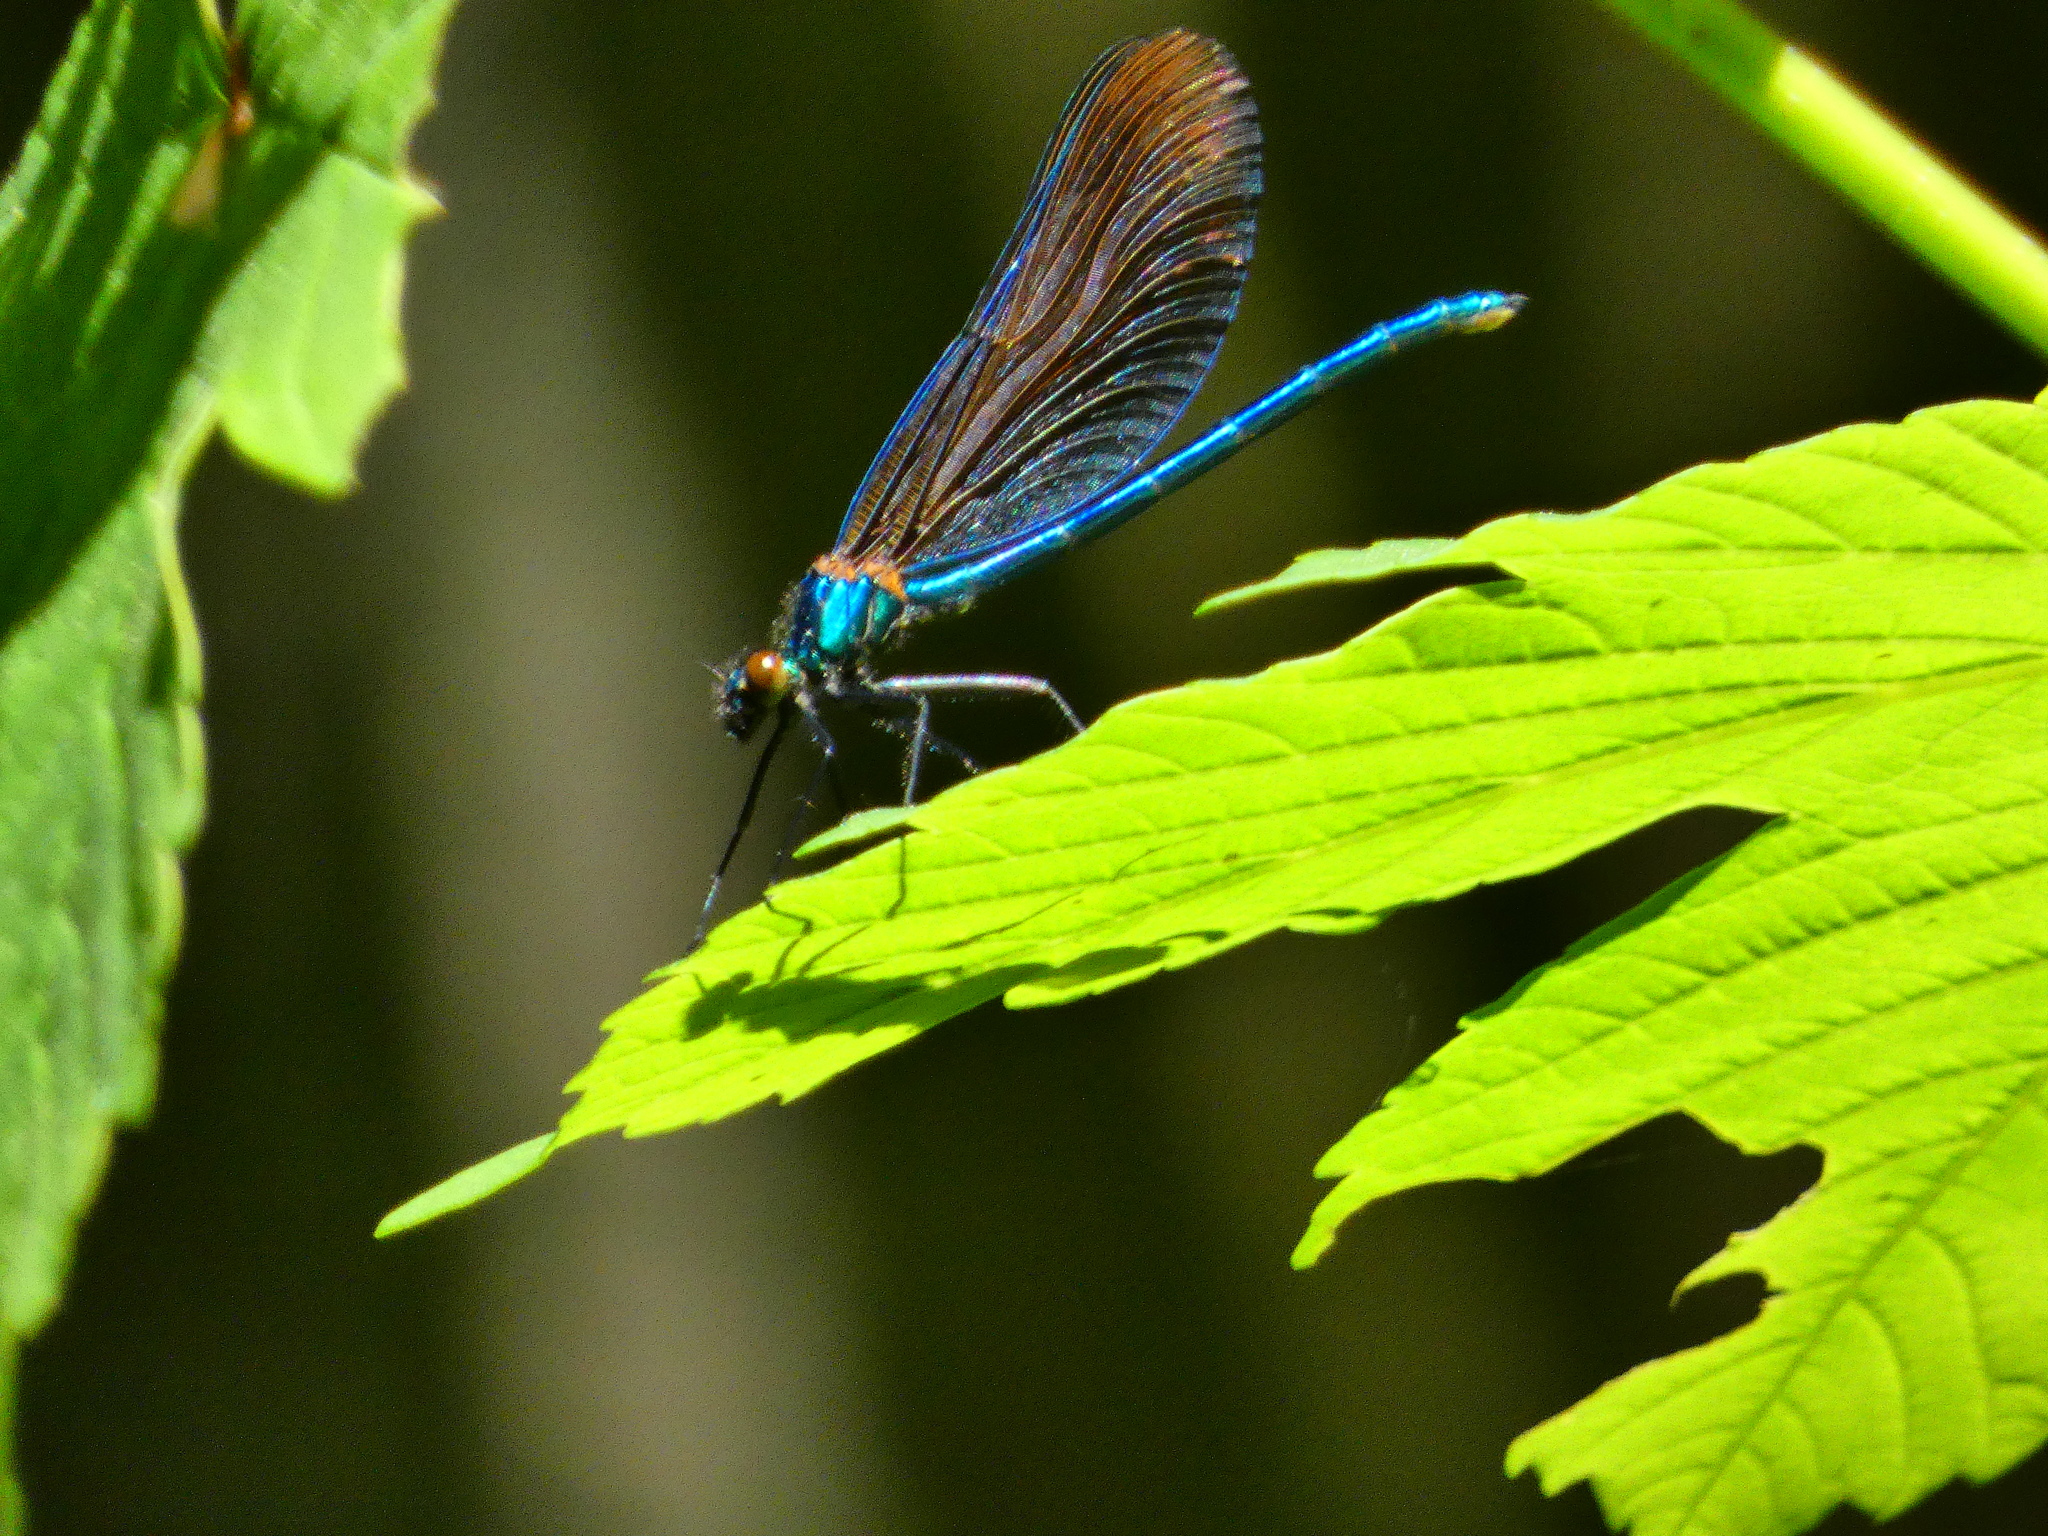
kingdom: Animalia
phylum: Arthropoda
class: Insecta
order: Odonata
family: Calopterygidae
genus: Calopteryx
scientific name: Calopteryx virgo
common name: Beautiful demoiselle
